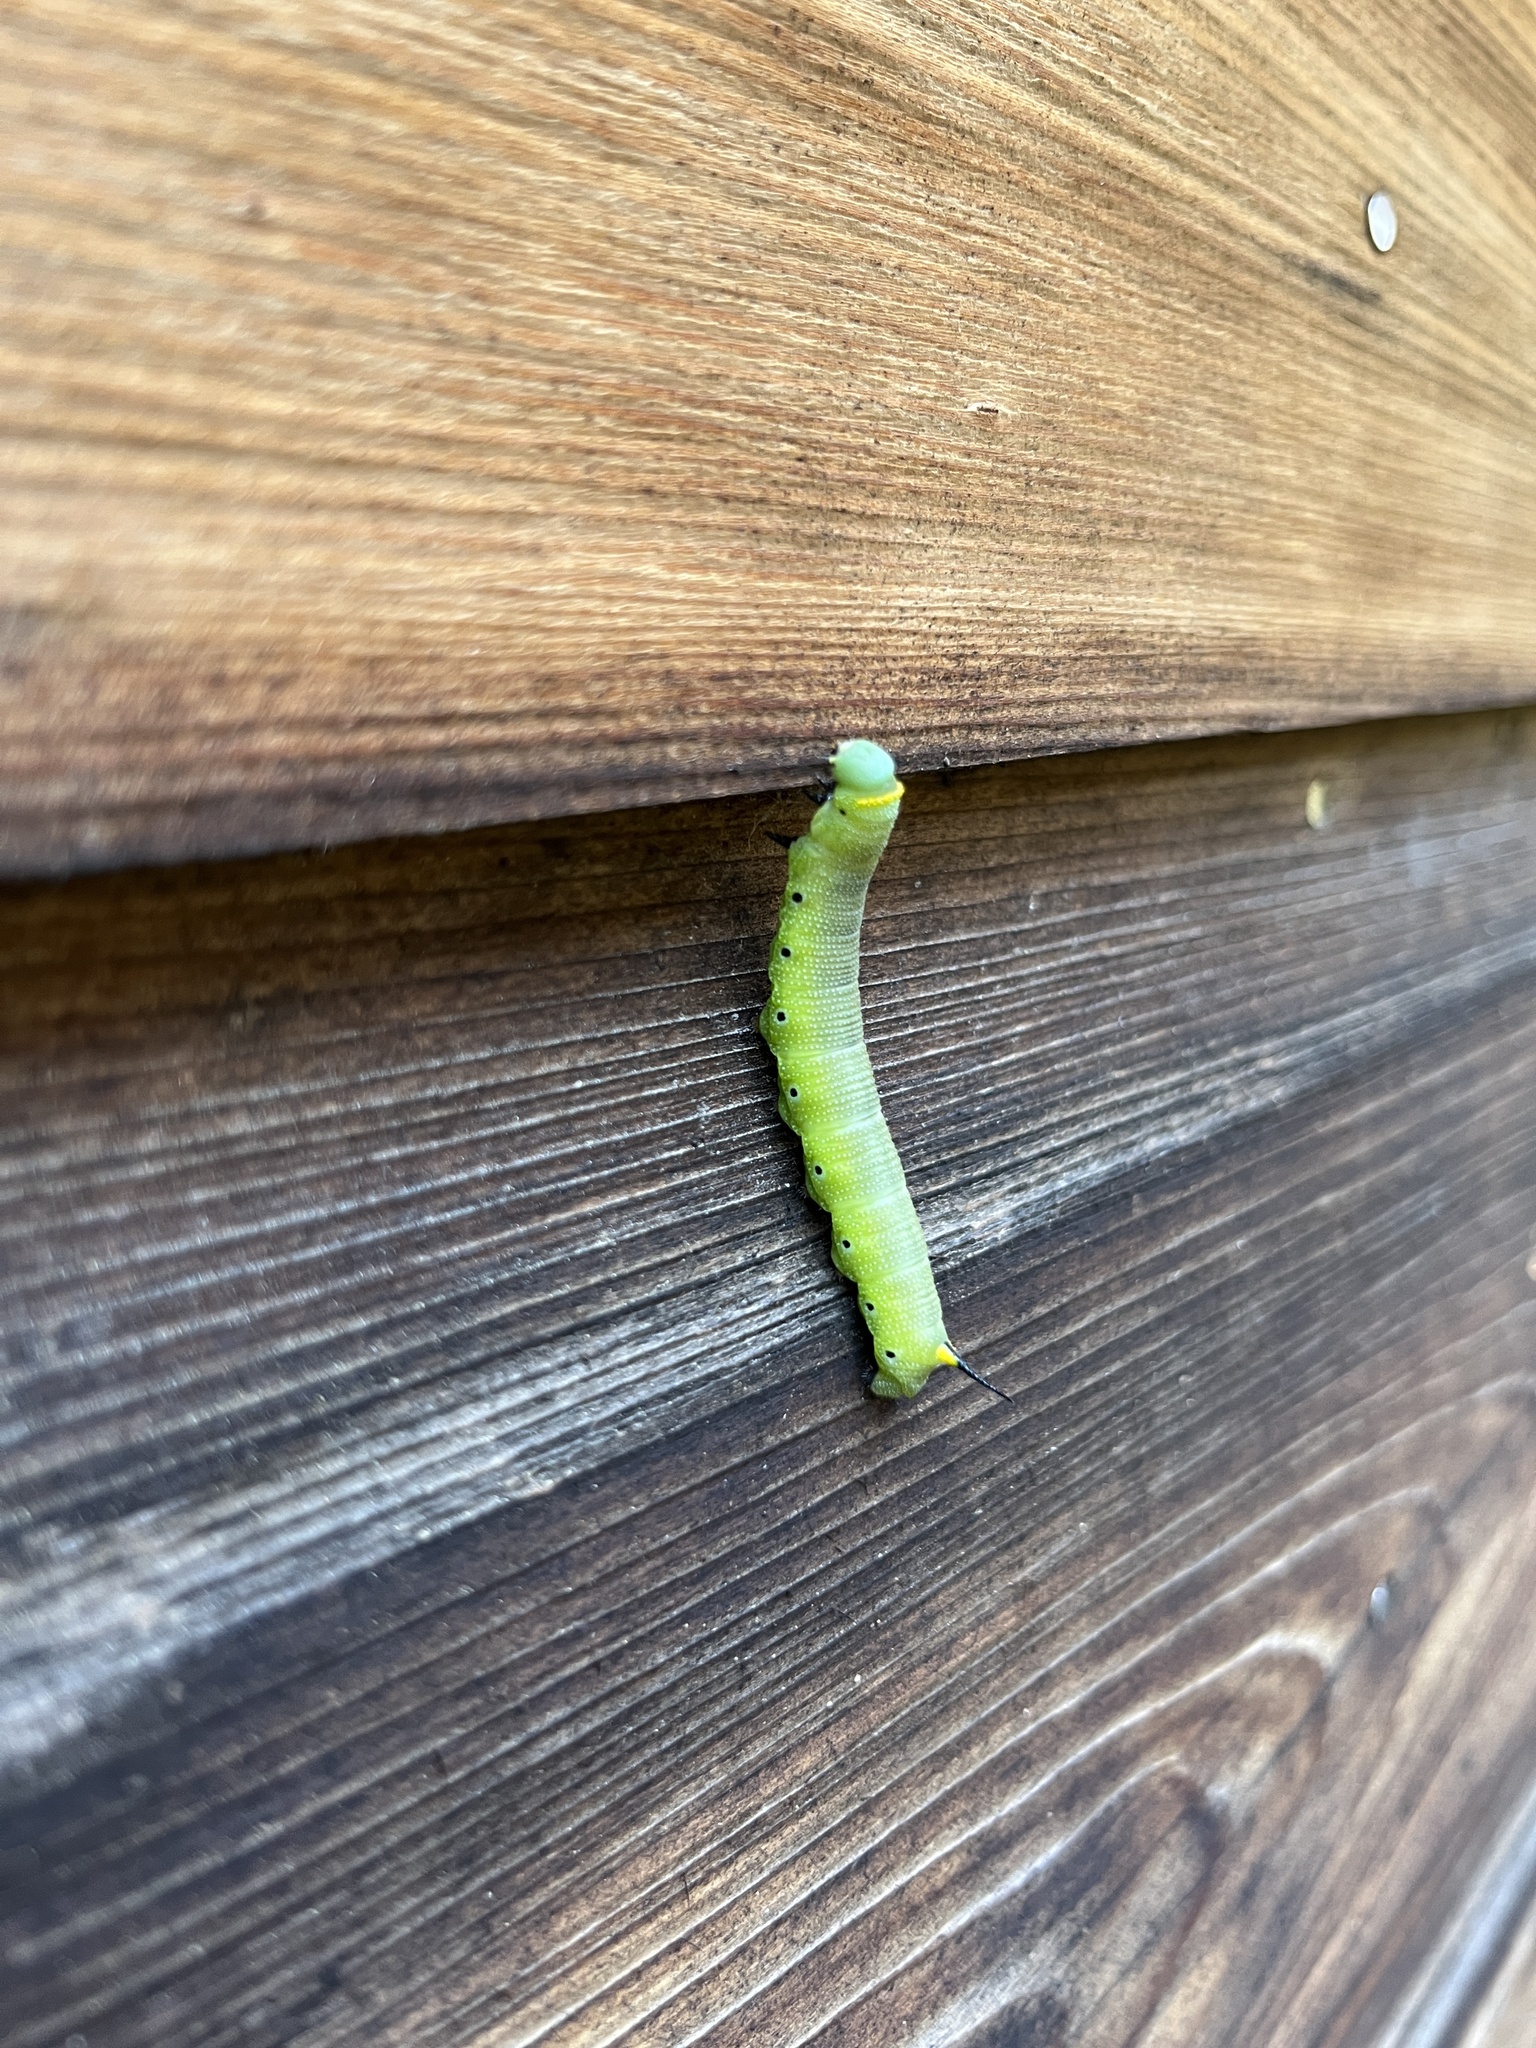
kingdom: Animalia
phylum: Arthropoda
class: Insecta
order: Lepidoptera
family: Sphingidae
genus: Hemaris
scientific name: Hemaris diffinis
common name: Bumblebee moth
